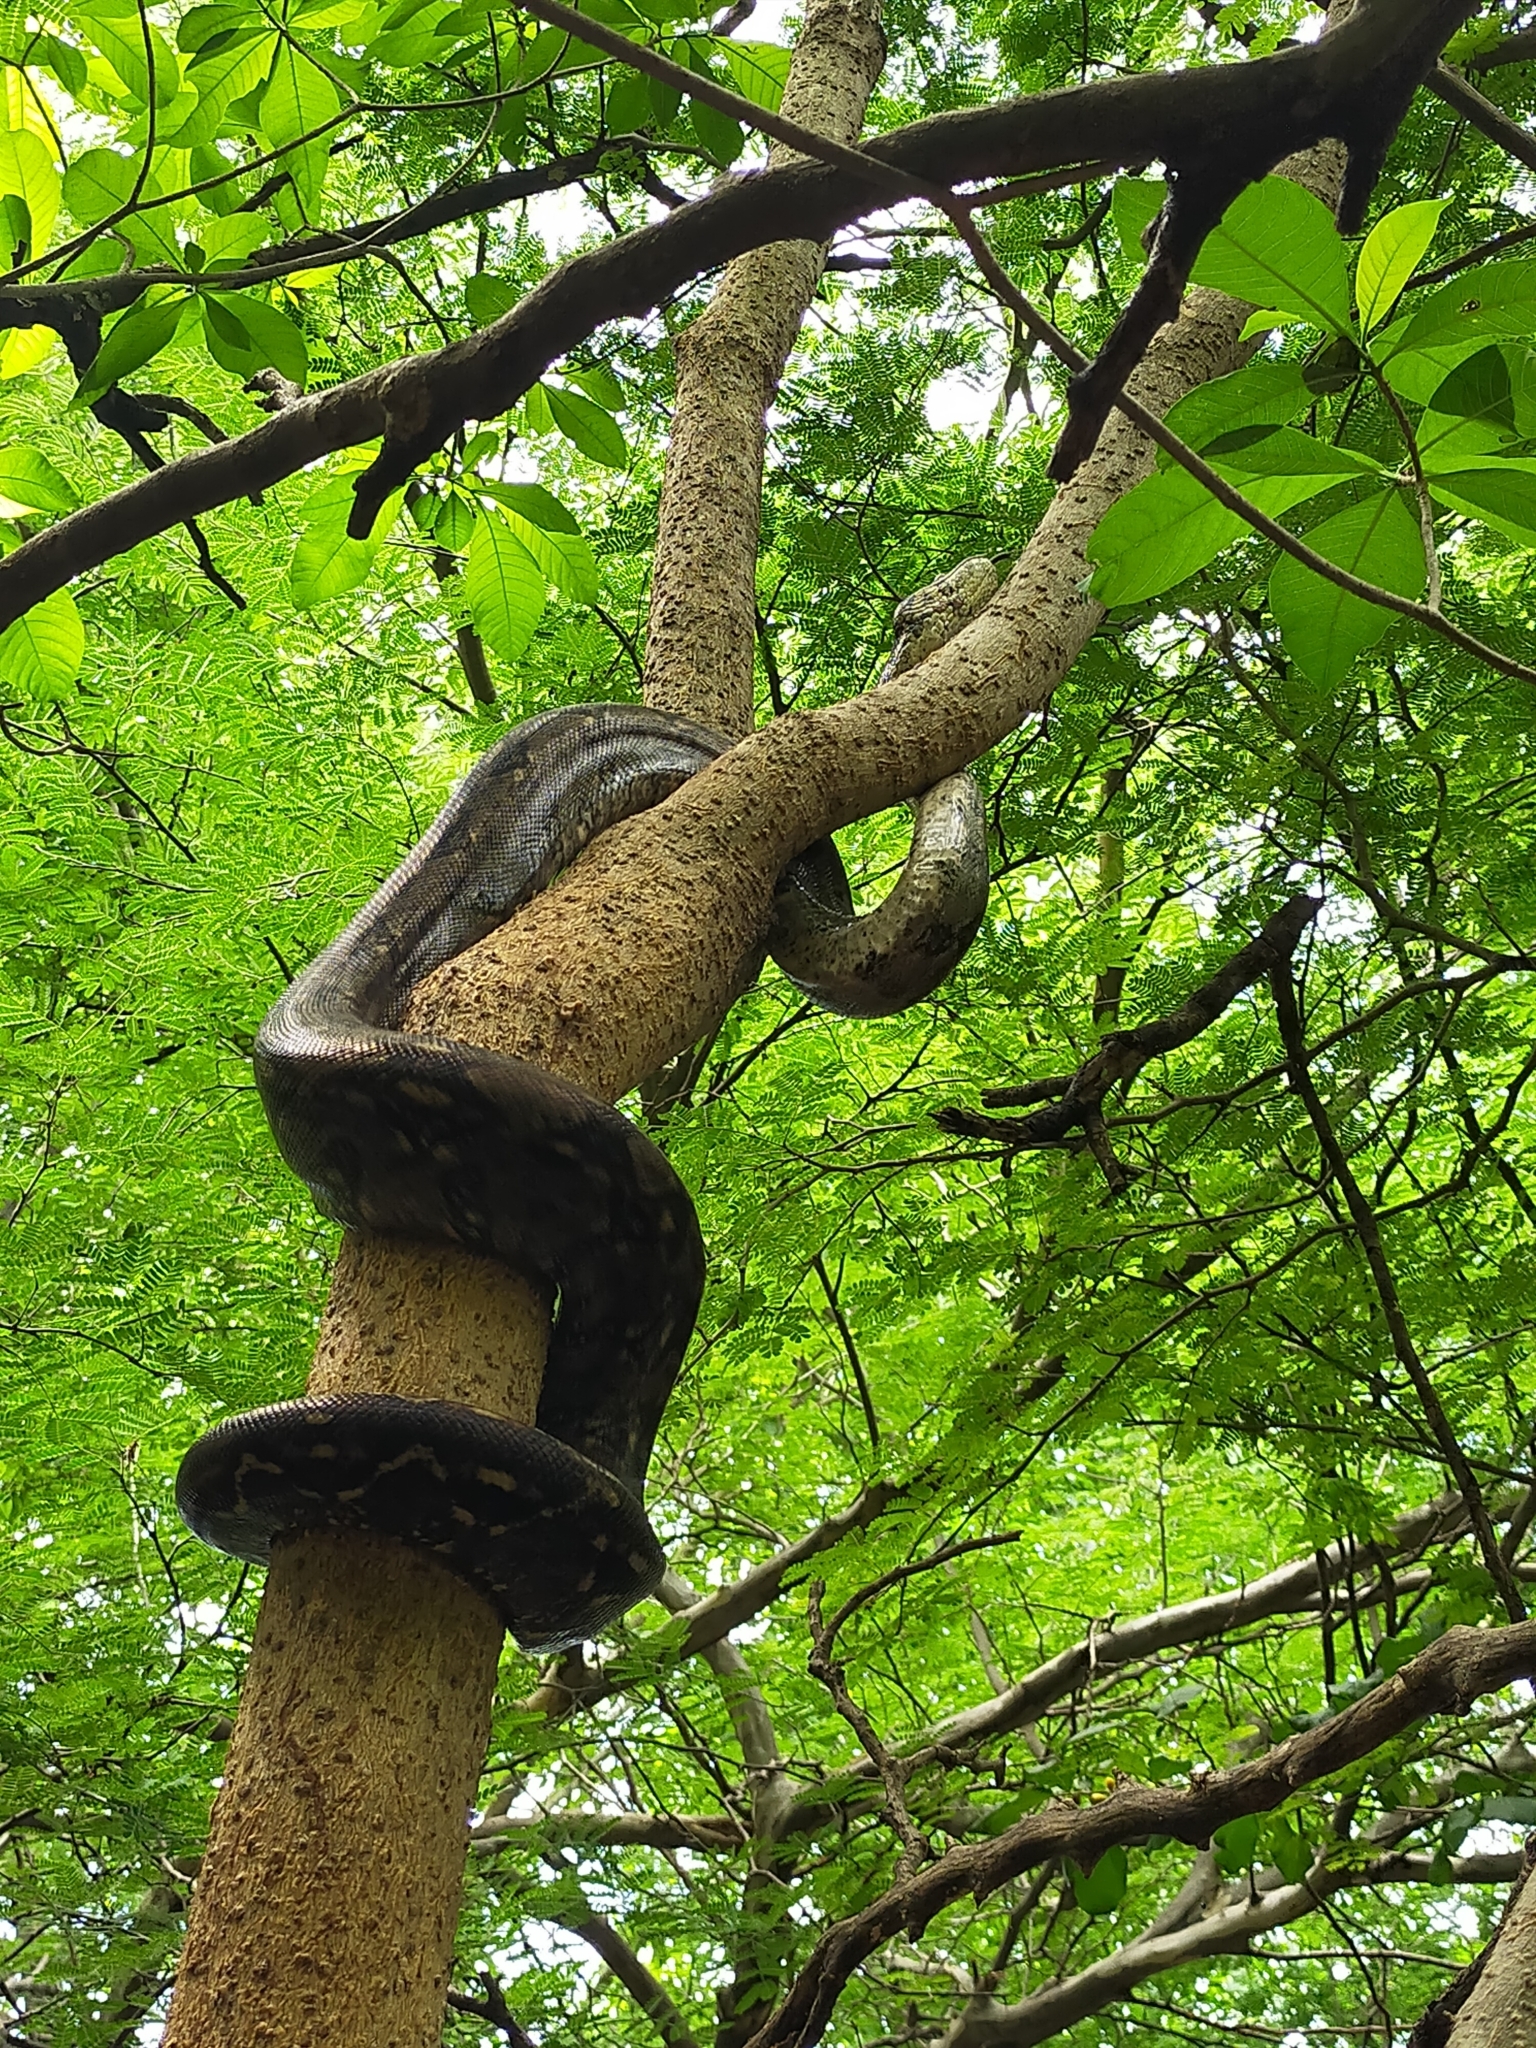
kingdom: Animalia
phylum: Chordata
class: Squamata
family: Boidae
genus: Boa
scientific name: Boa
